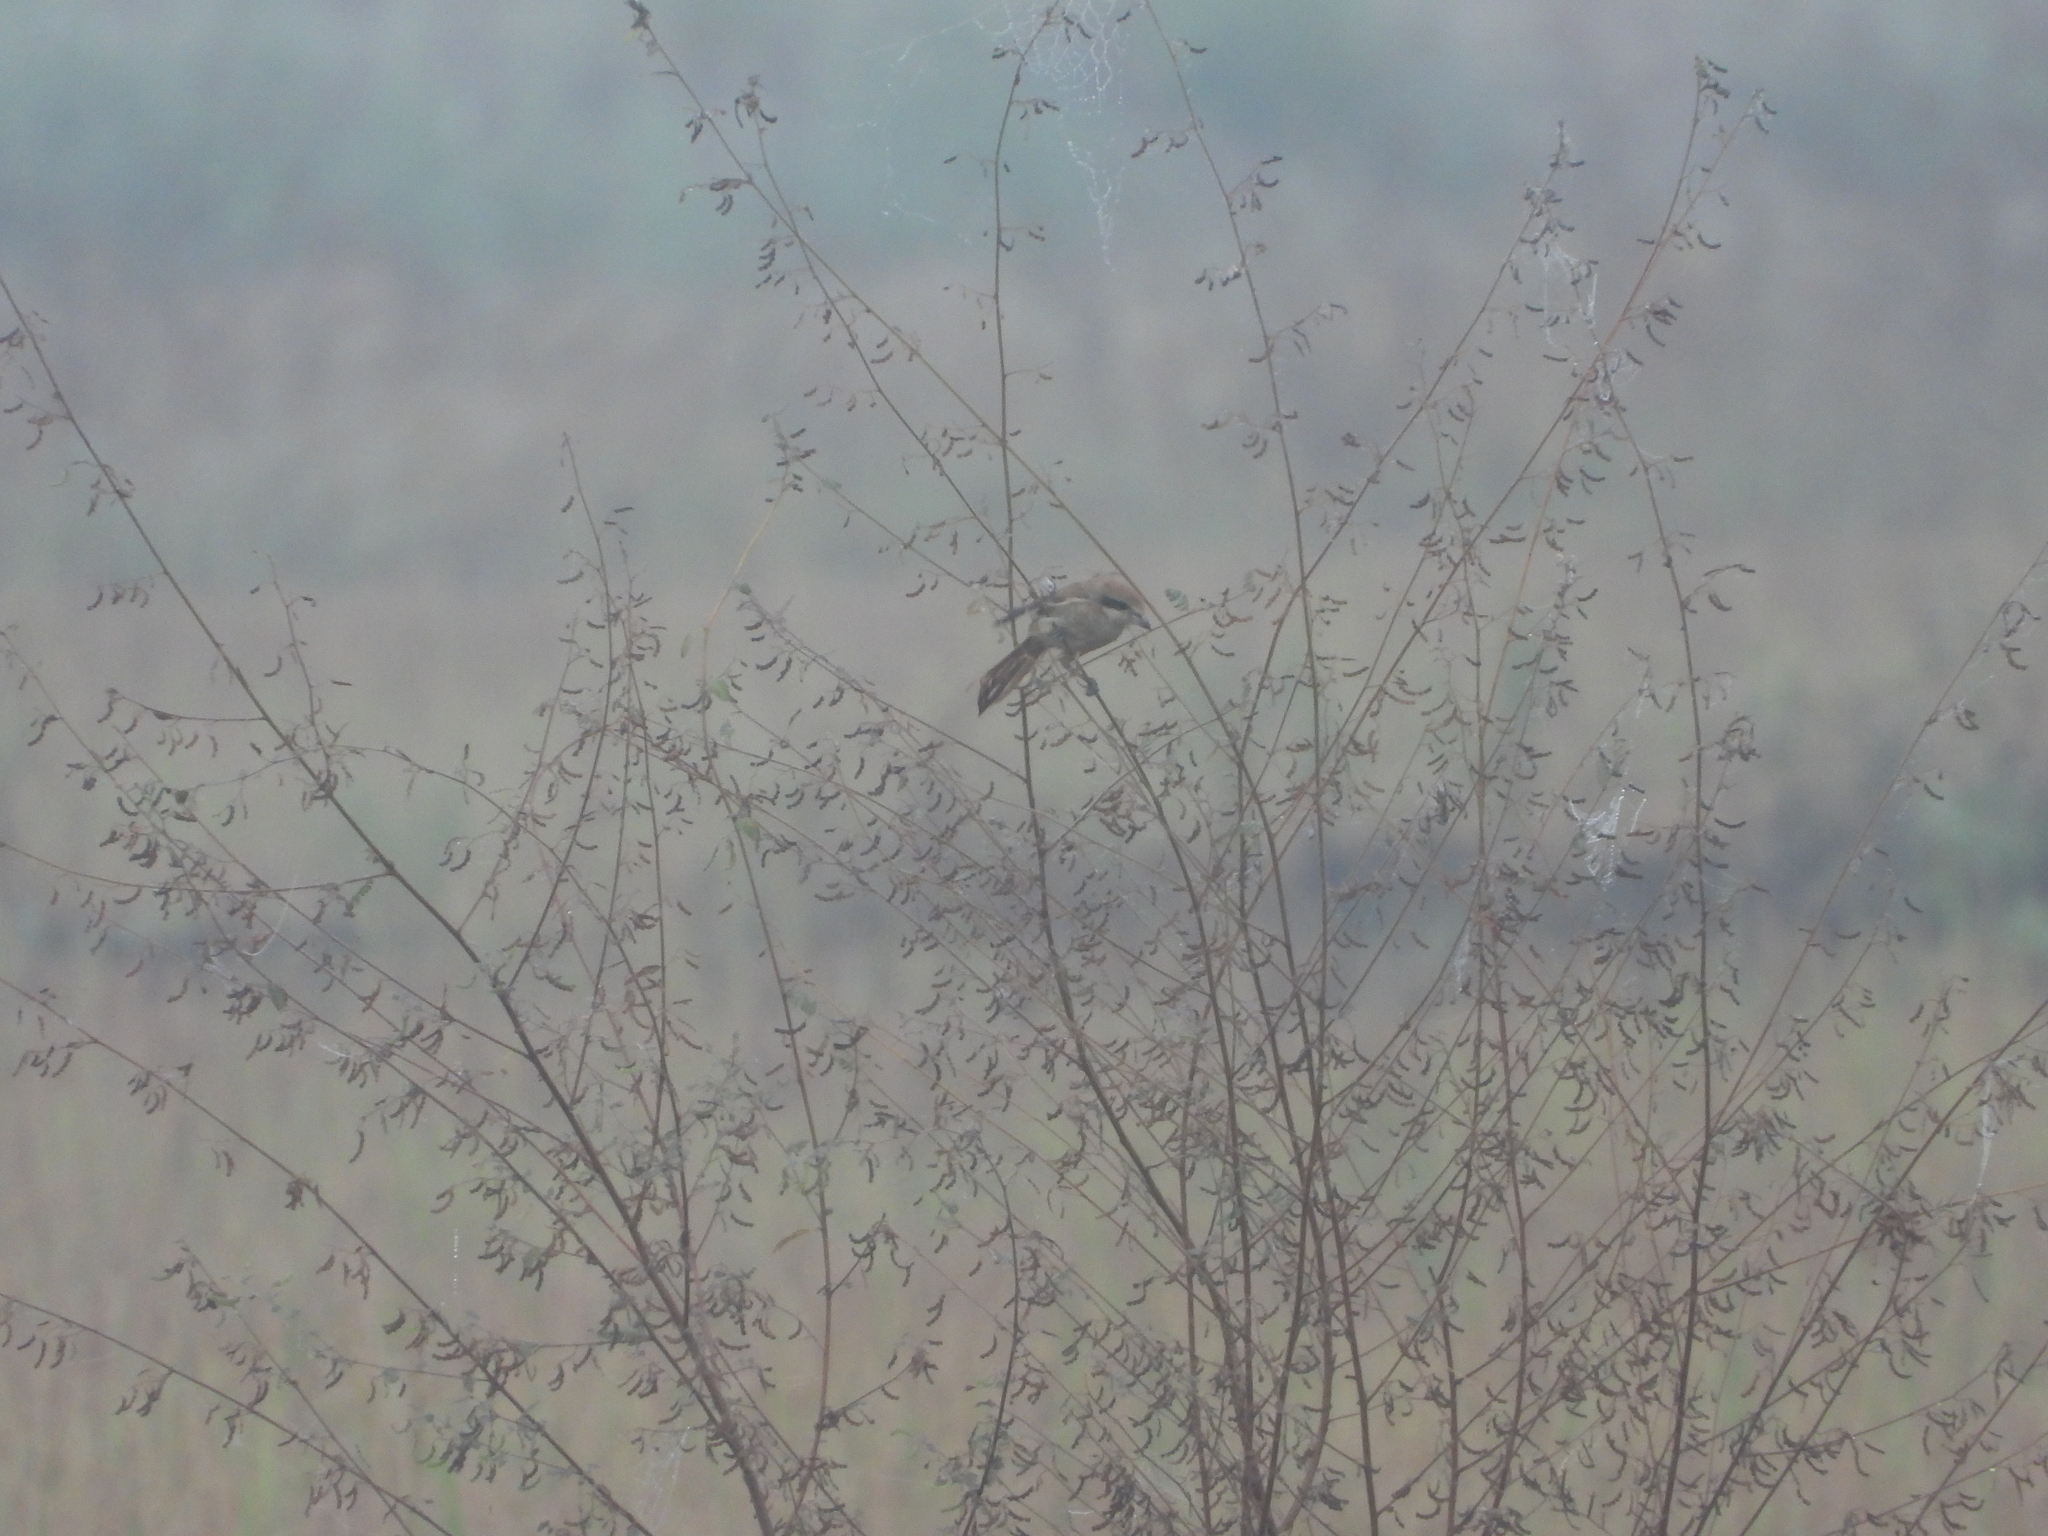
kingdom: Animalia
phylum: Chordata
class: Aves
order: Passeriformes
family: Laniidae
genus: Lanius
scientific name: Lanius cristatus
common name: Brown shrike
